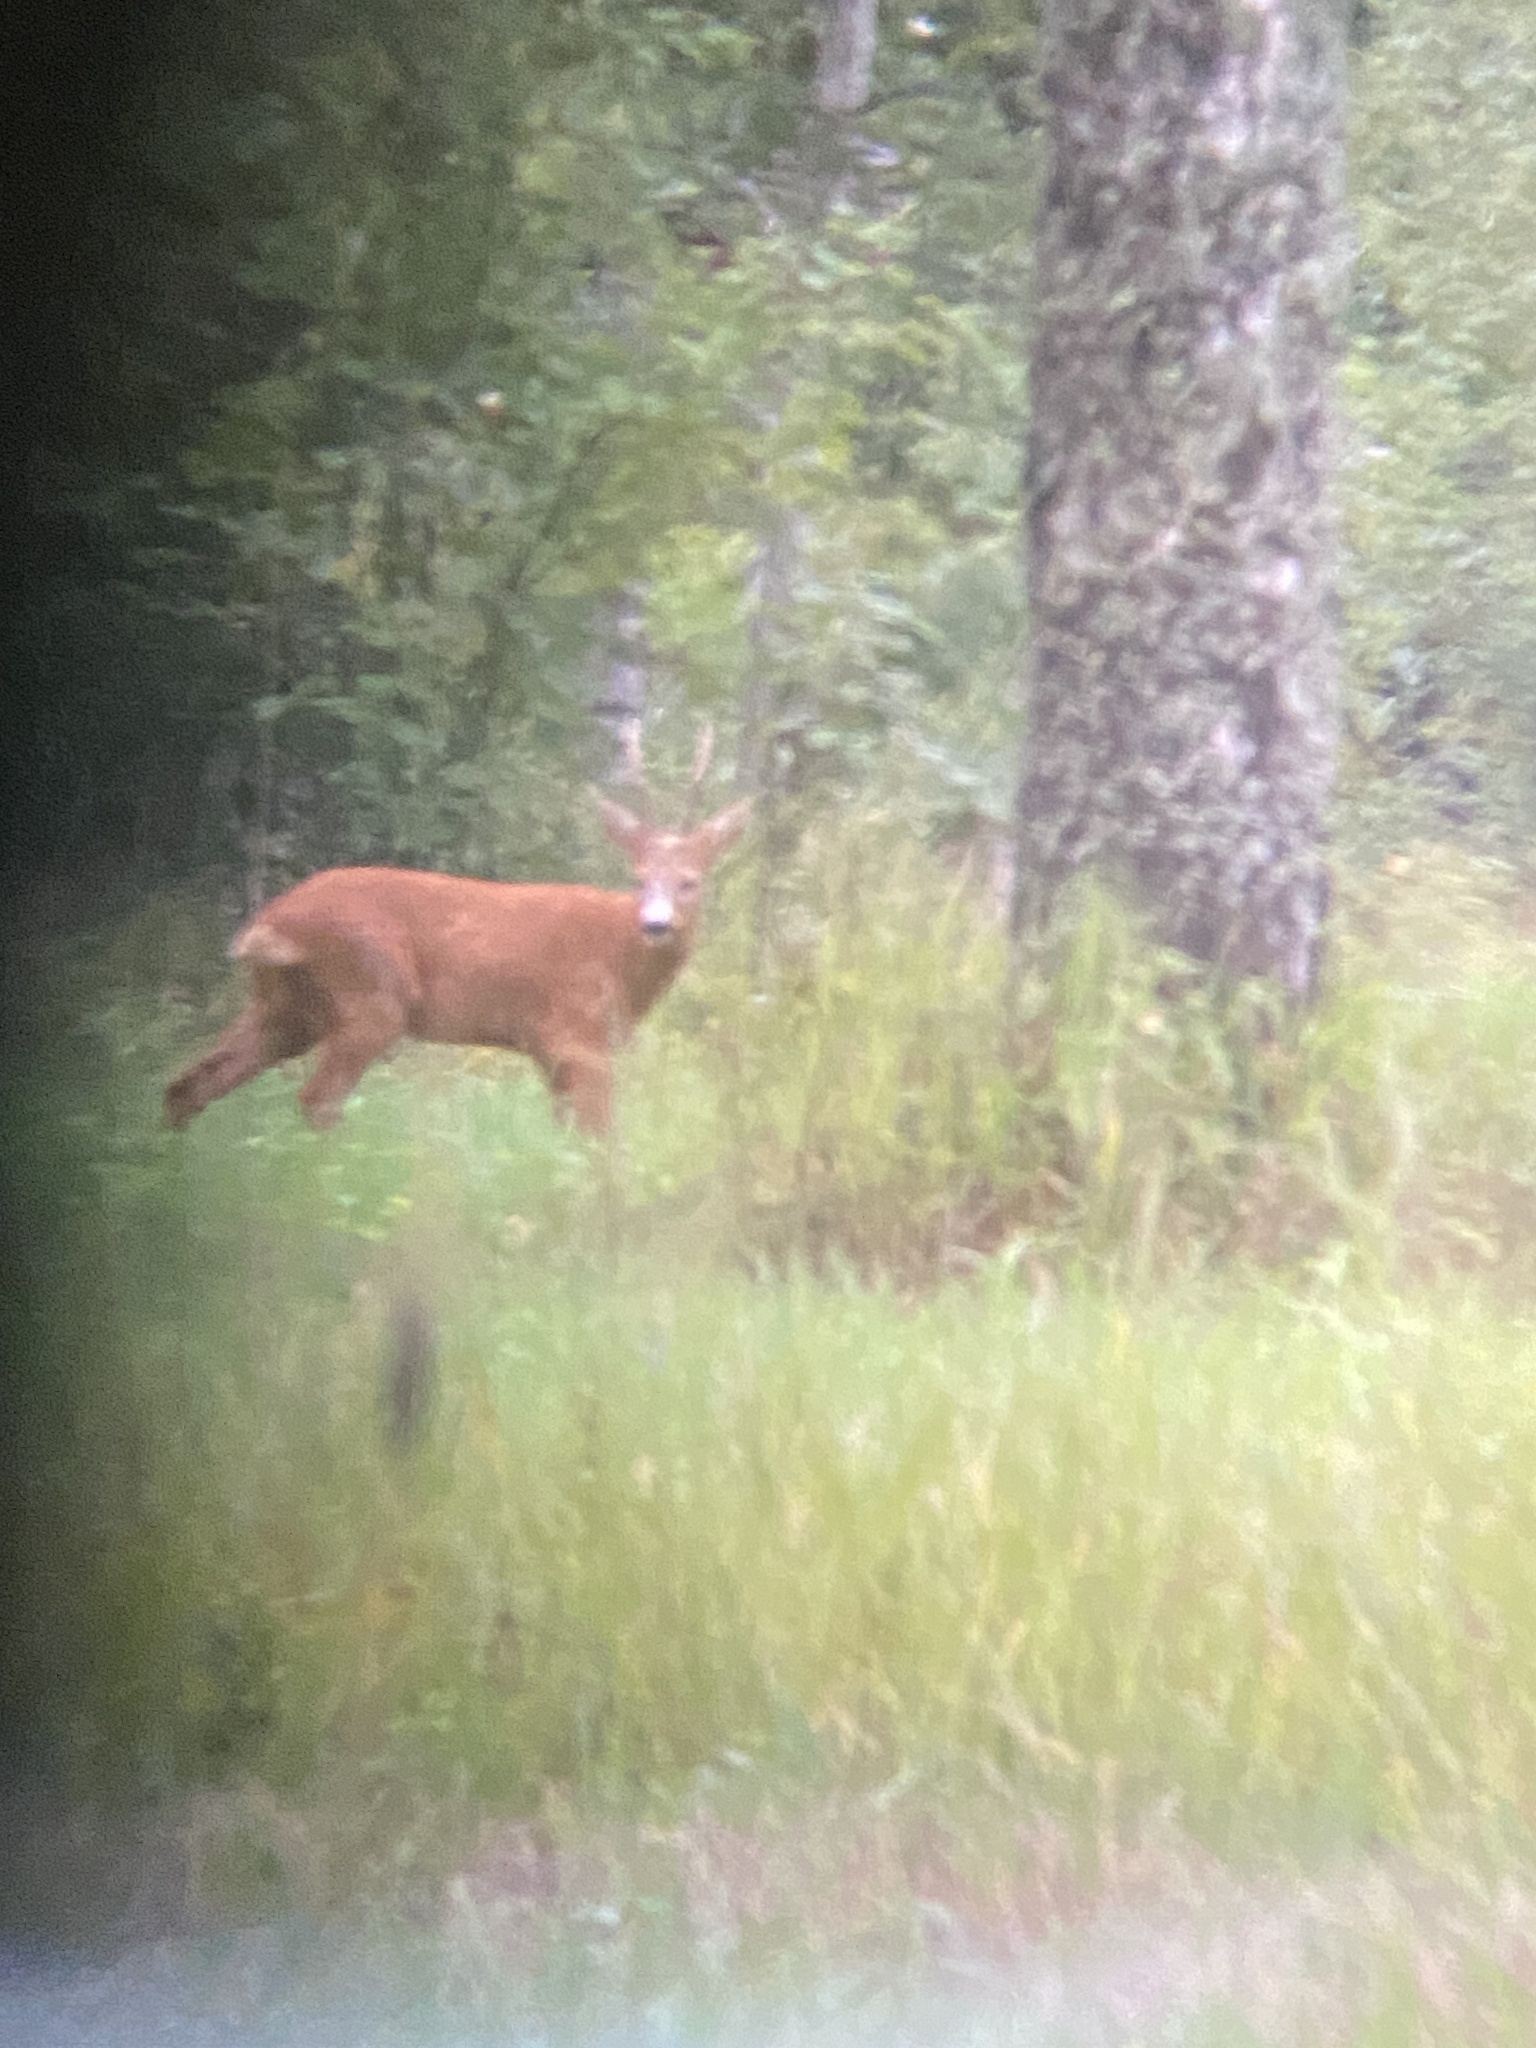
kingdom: Animalia
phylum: Chordata
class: Mammalia
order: Artiodactyla
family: Cervidae
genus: Capreolus
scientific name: Capreolus capreolus
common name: Western roe deer
